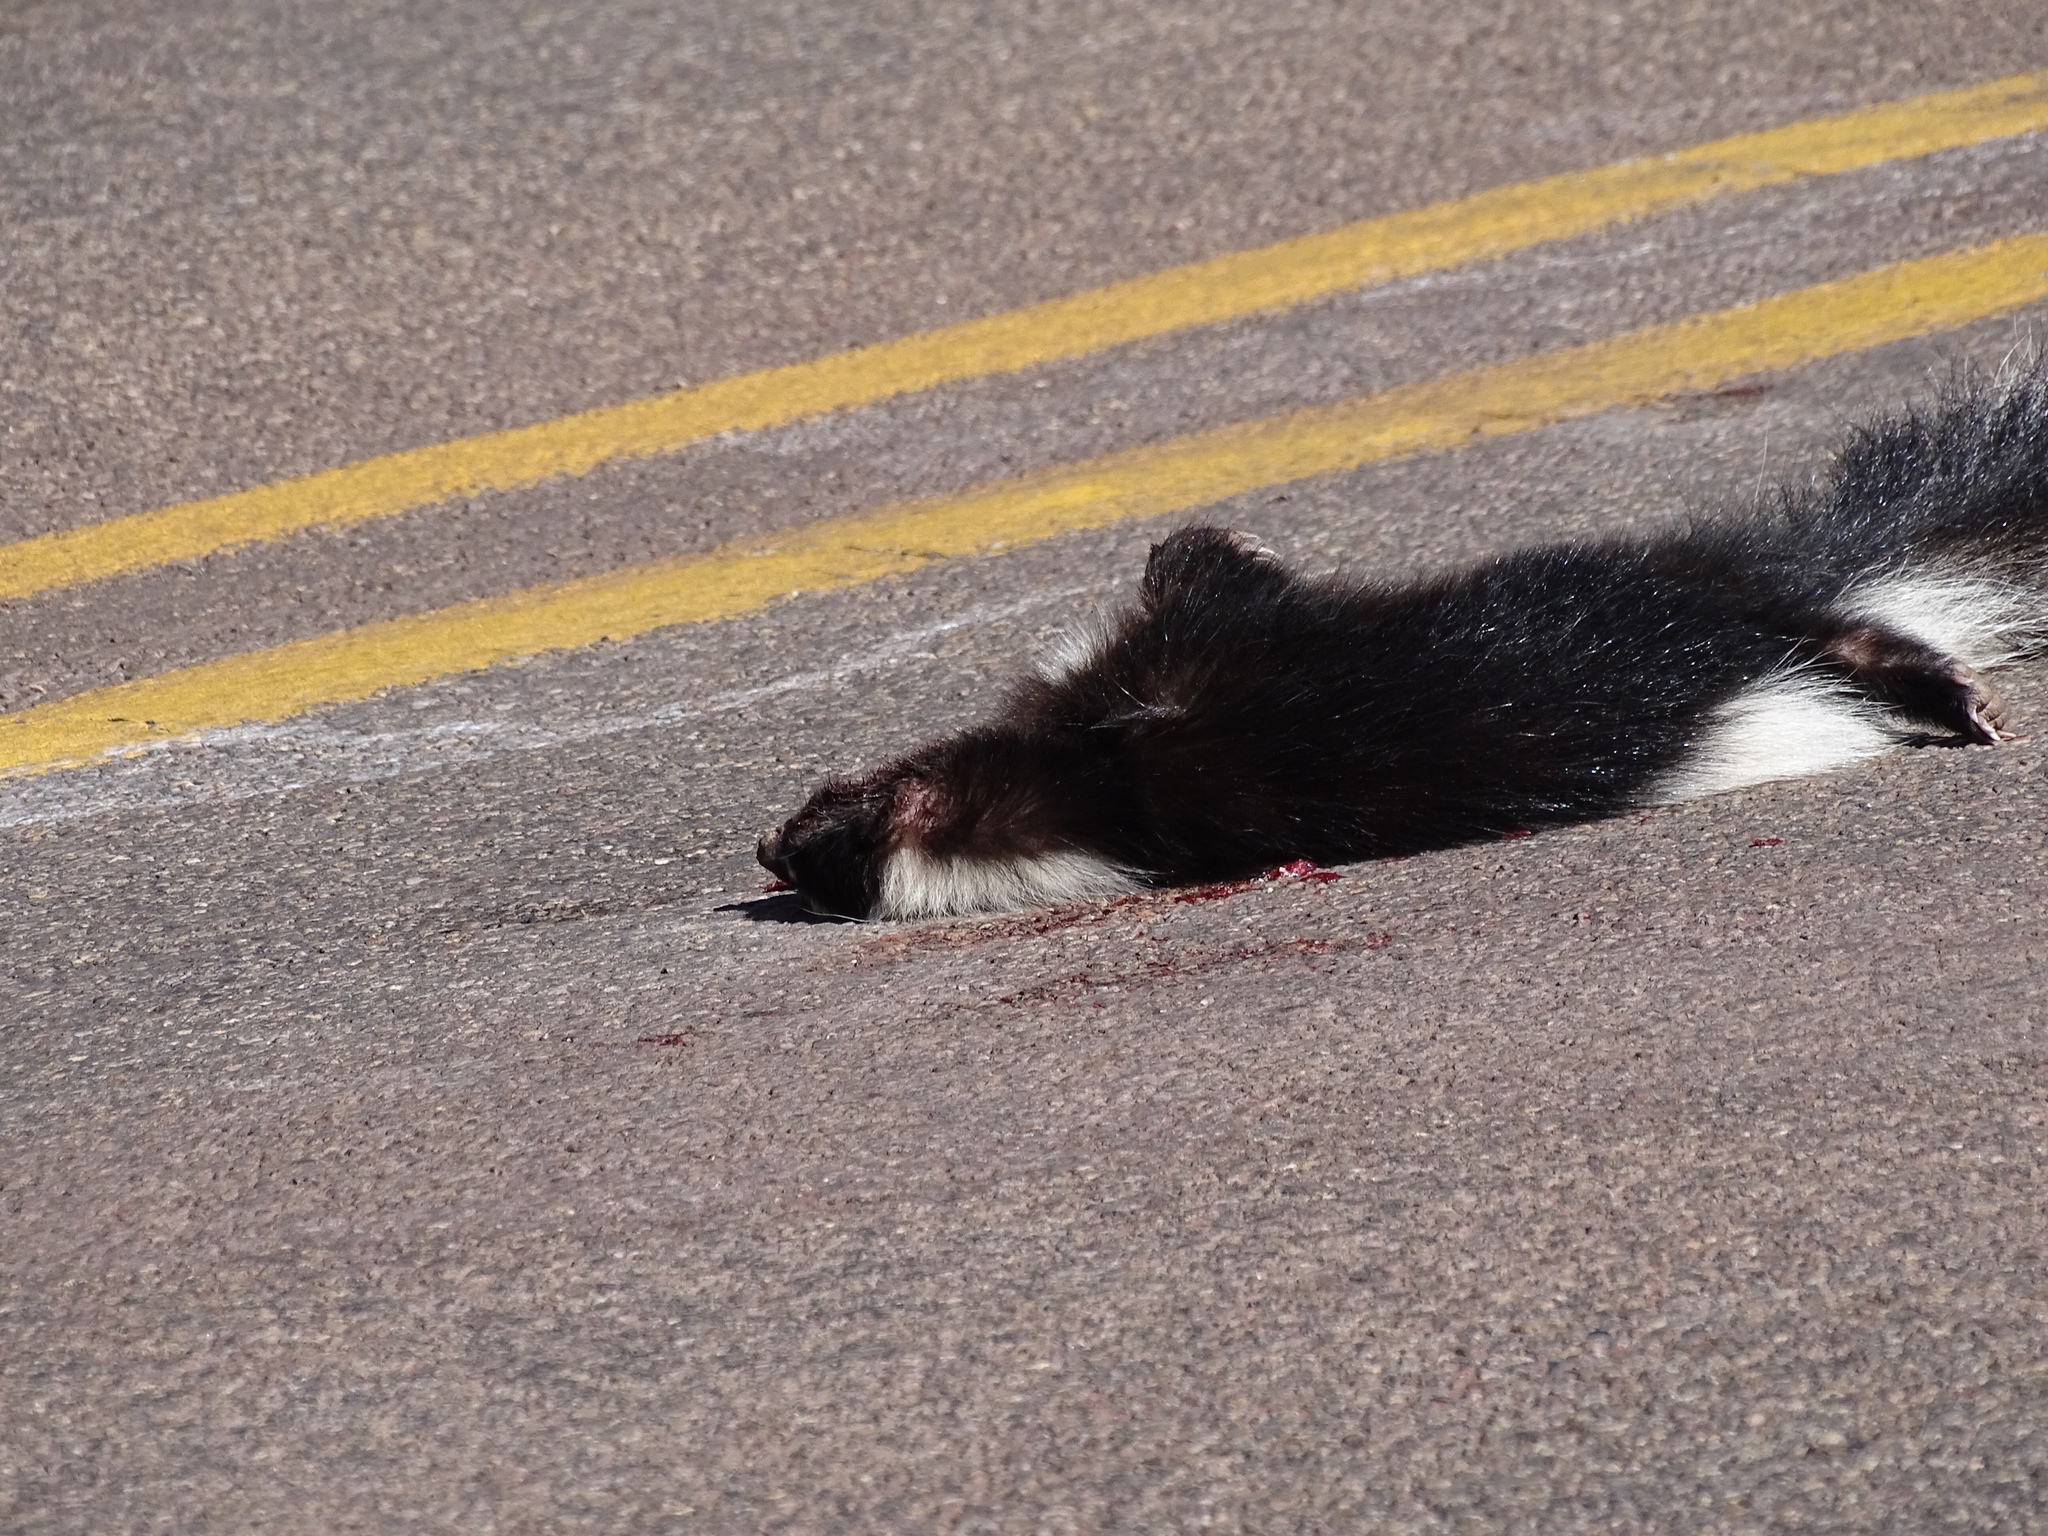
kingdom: Animalia
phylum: Chordata
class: Mammalia
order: Carnivora
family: Mephitidae
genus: Mephitis
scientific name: Mephitis mephitis
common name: Striped skunk
